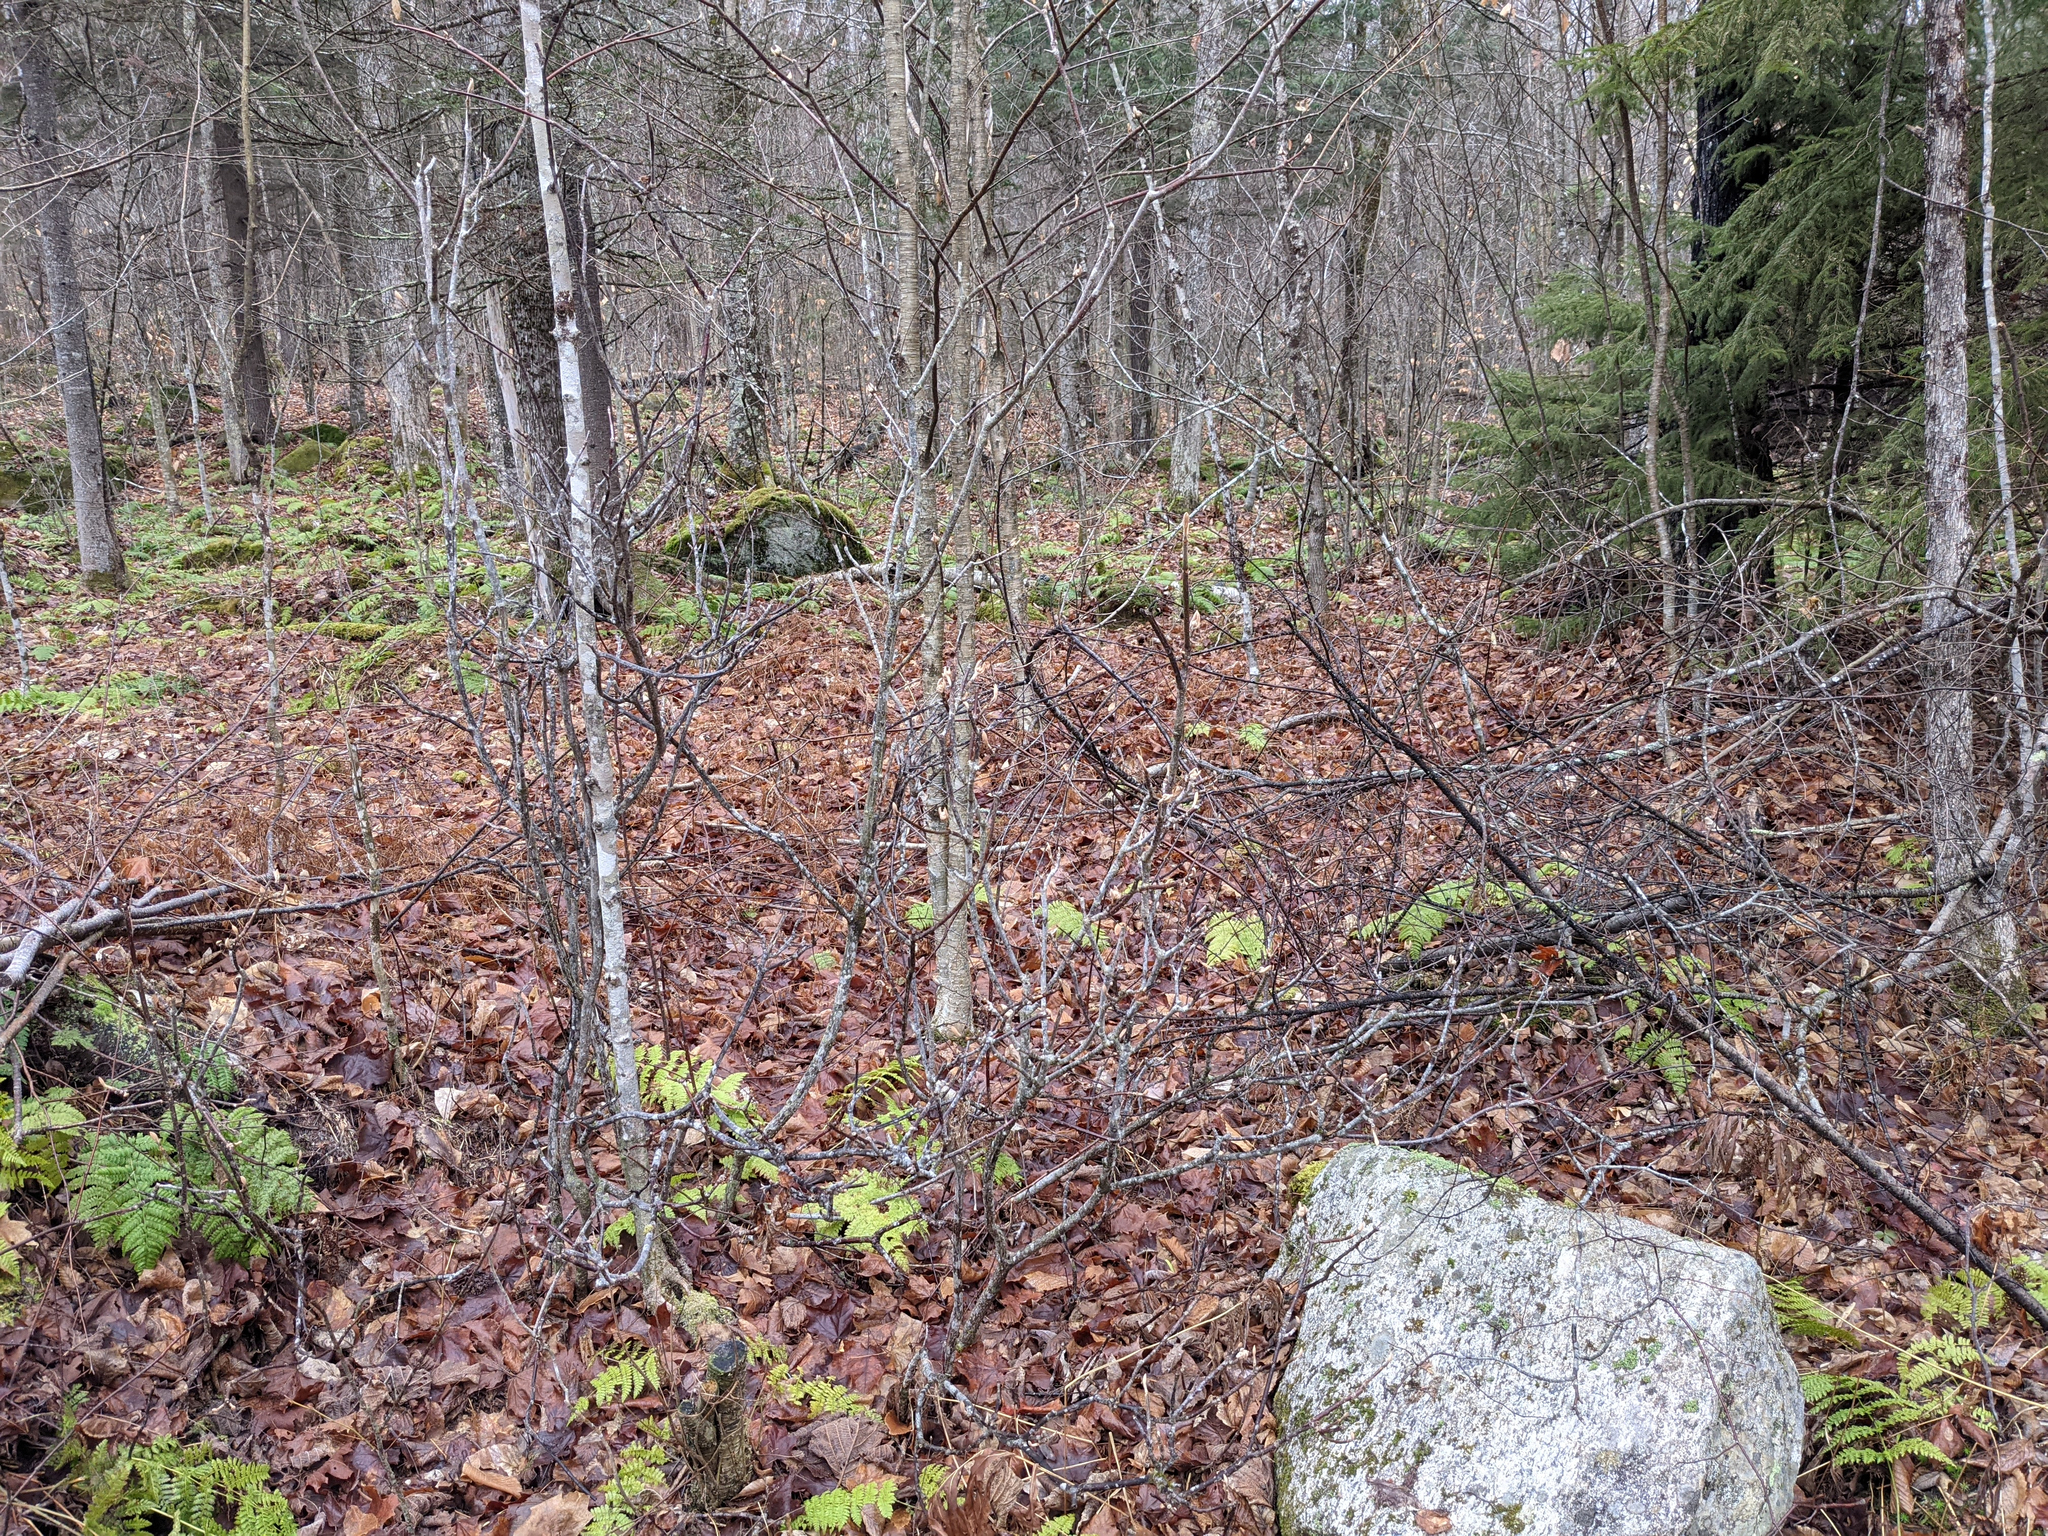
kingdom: Plantae
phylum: Tracheophyta
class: Magnoliopsida
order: Dipsacales
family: Viburnaceae
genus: Viburnum
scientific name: Viburnum lantanoides
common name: Hobblebush
